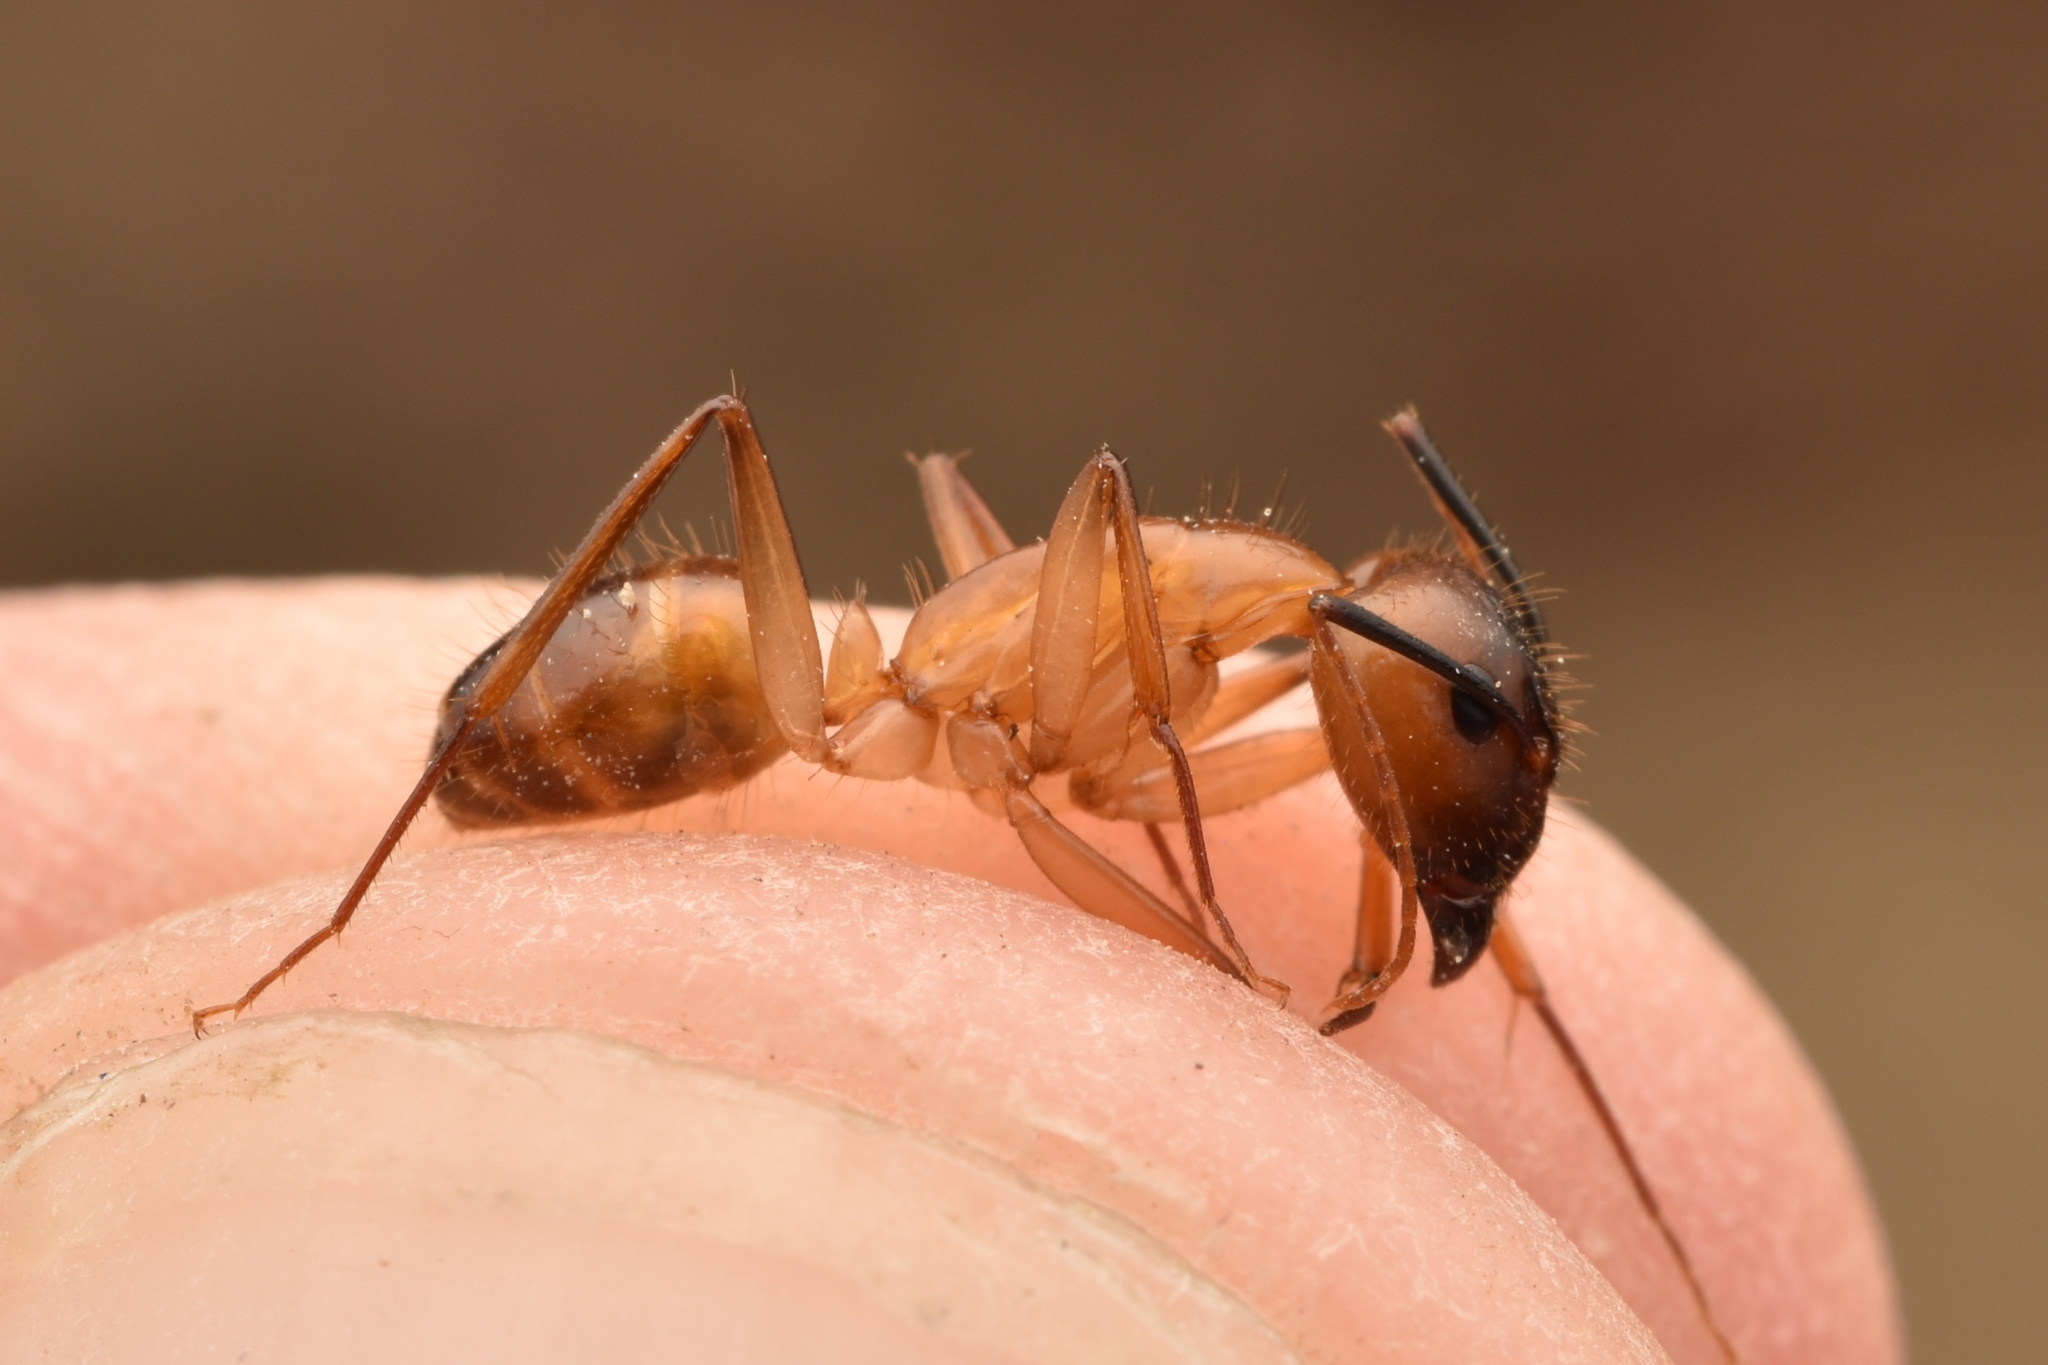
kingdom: Animalia
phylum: Arthropoda
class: Insecta
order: Hymenoptera
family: Formicidae
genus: Camponotus
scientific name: Camponotus festinatus
